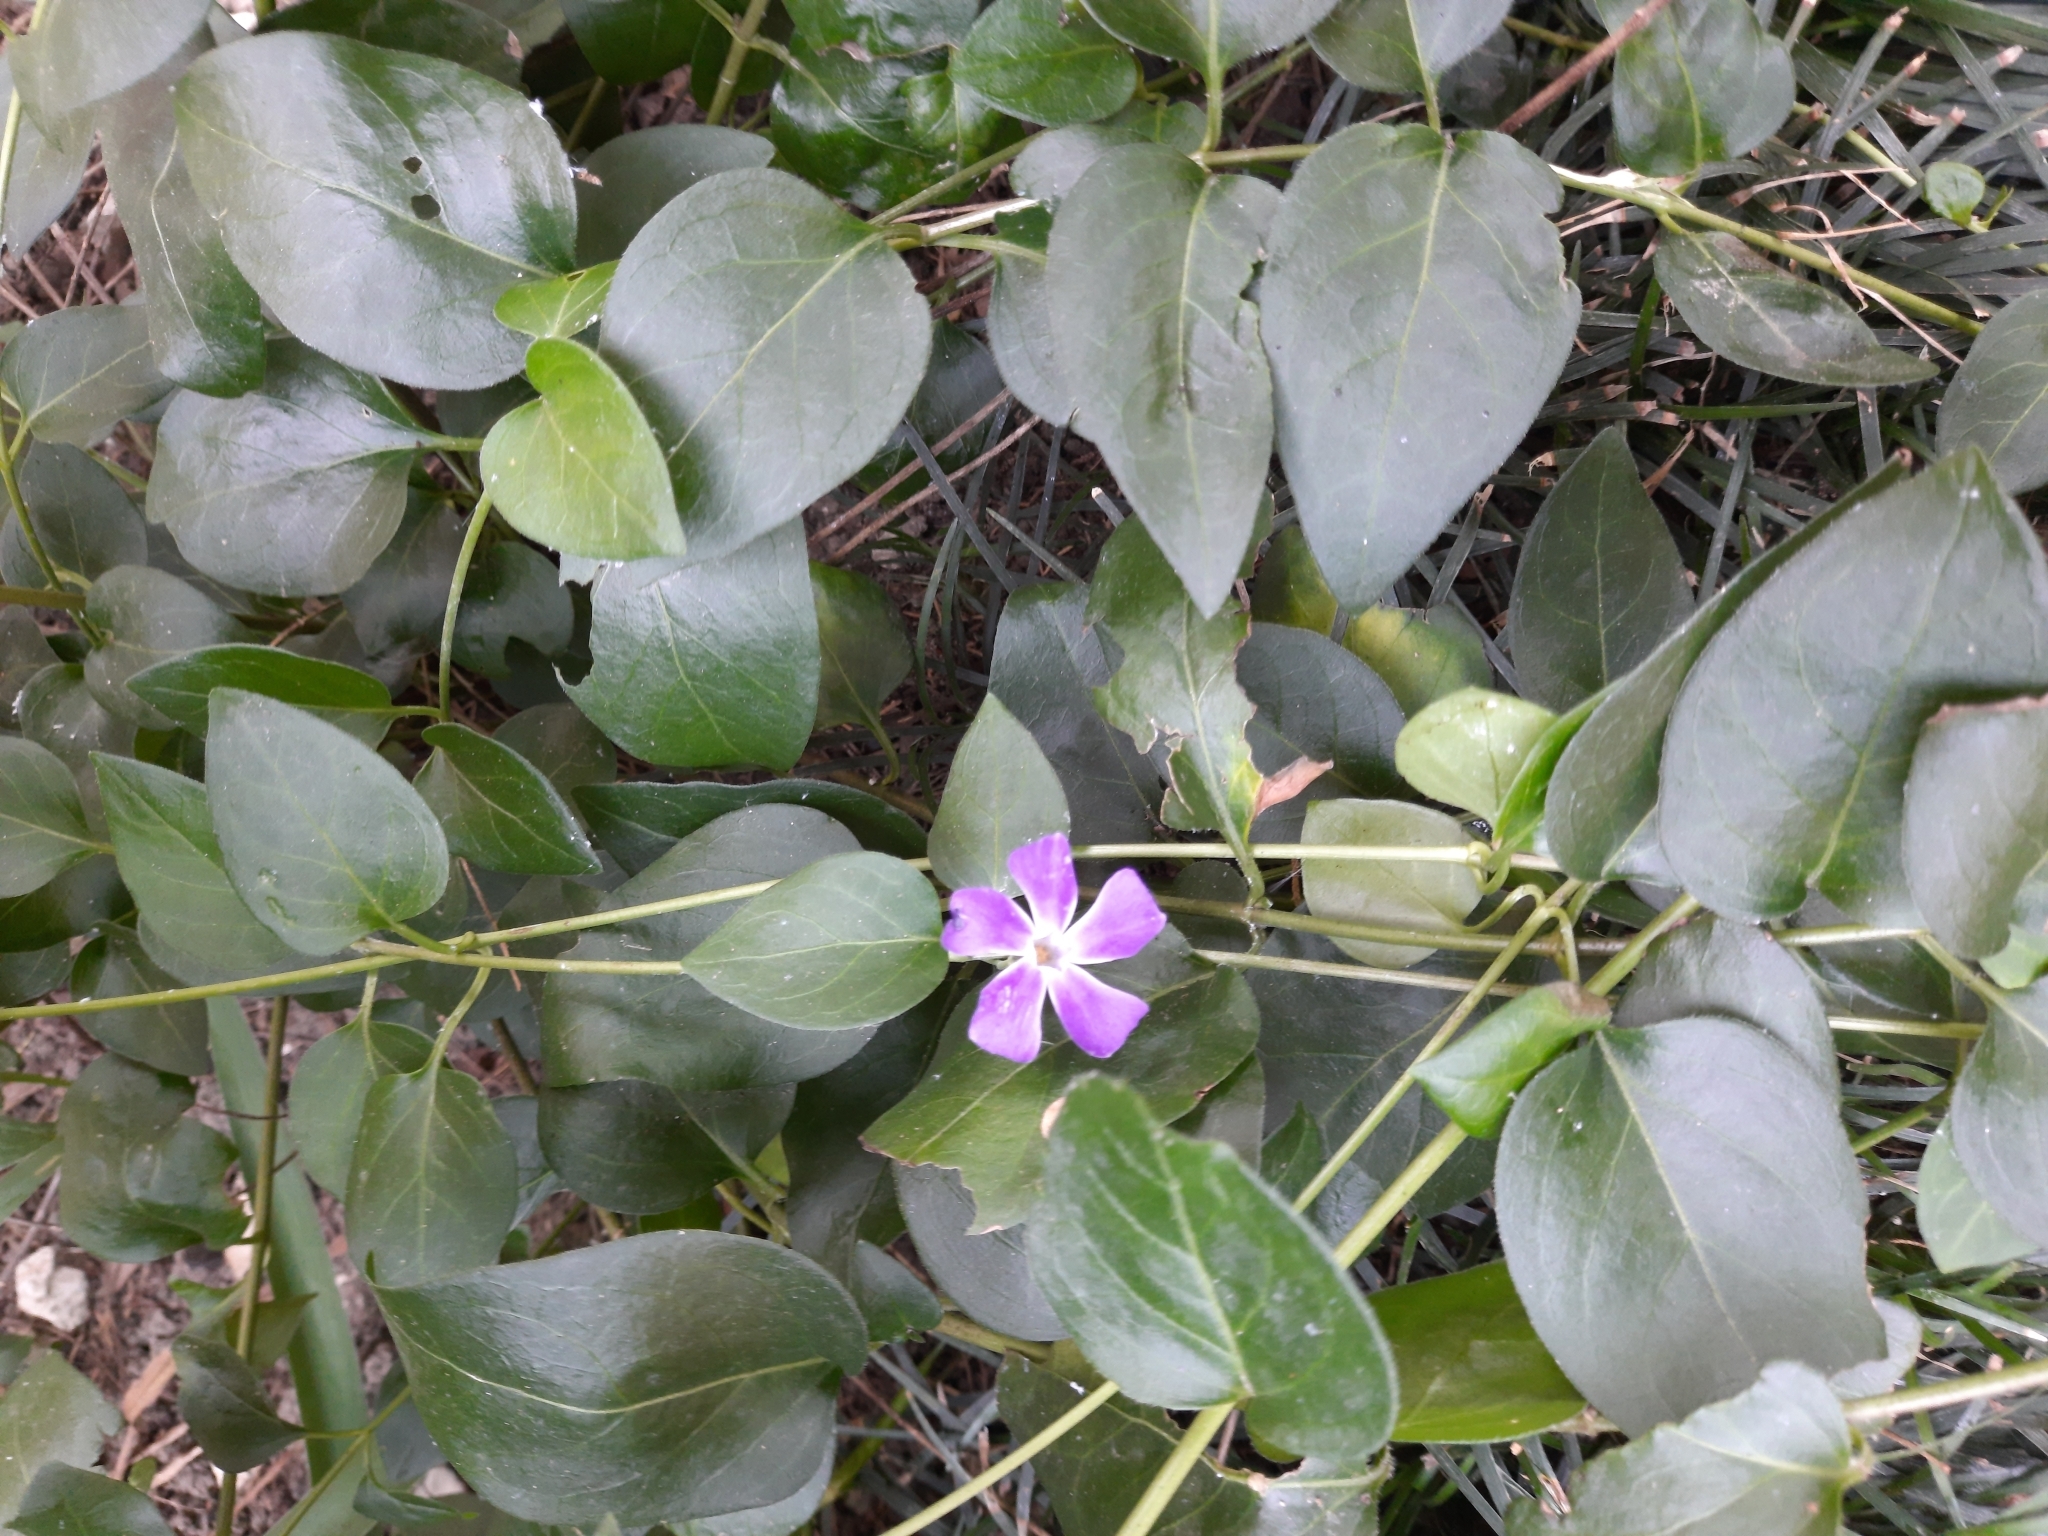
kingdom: Plantae
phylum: Tracheophyta
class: Magnoliopsida
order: Gentianales
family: Apocynaceae
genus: Vinca
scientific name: Vinca major
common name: Greater periwinkle
